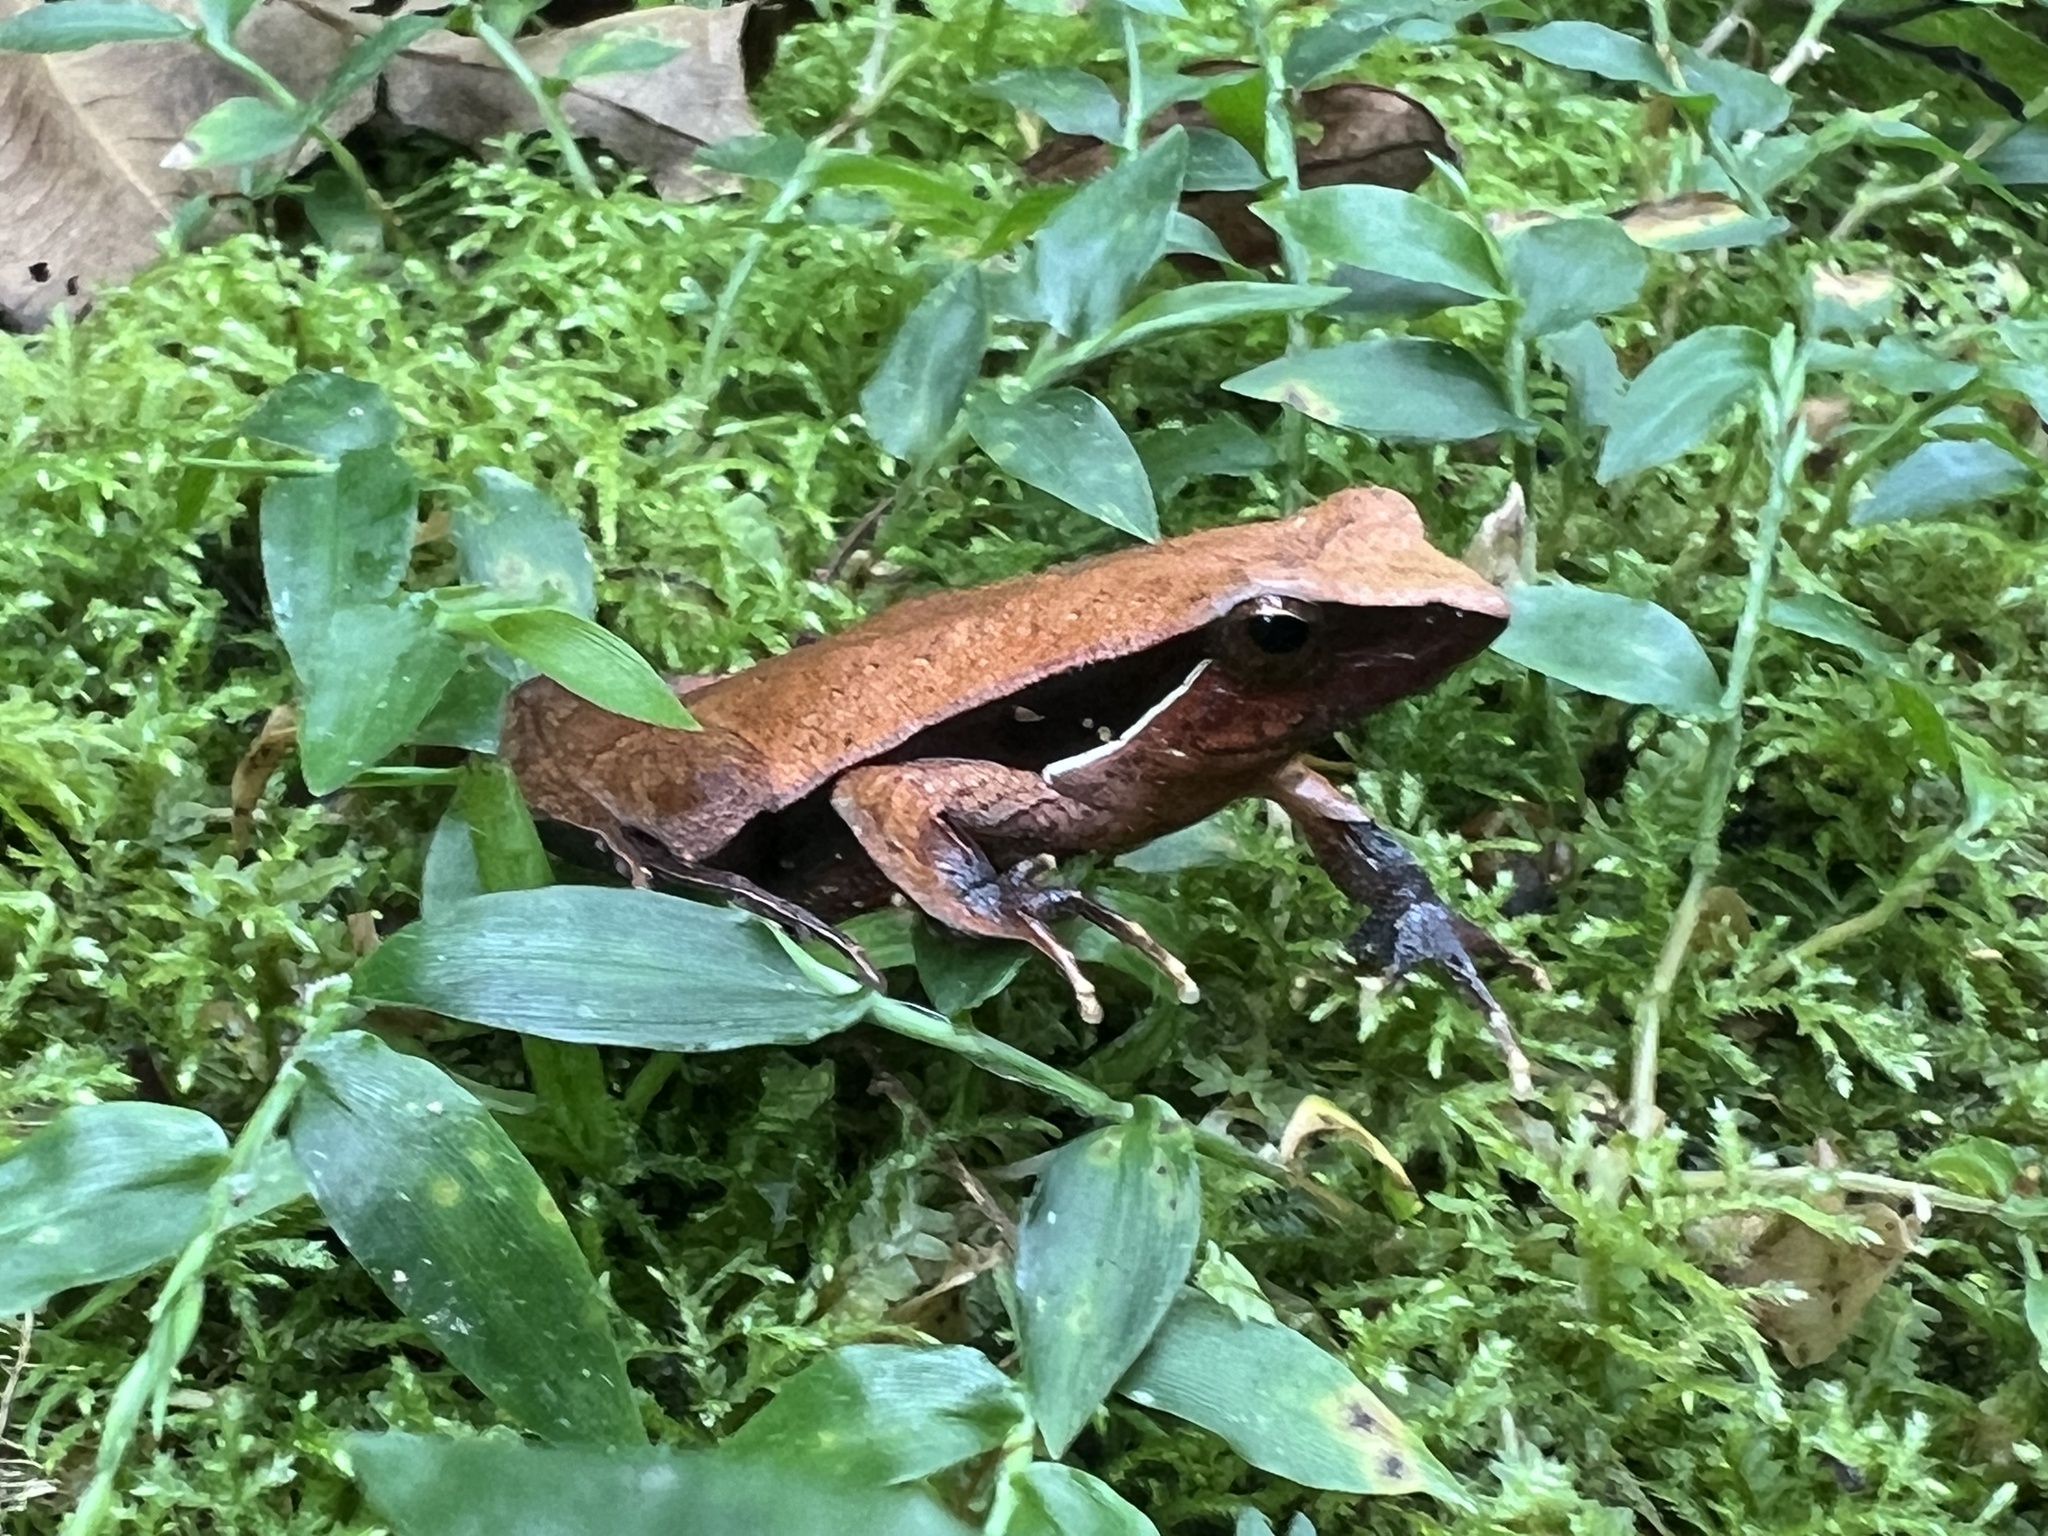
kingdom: Animalia
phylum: Chordata
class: Amphibia
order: Anura
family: Leptodactylidae
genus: Physalaemus
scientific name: Physalaemus lateristriga
